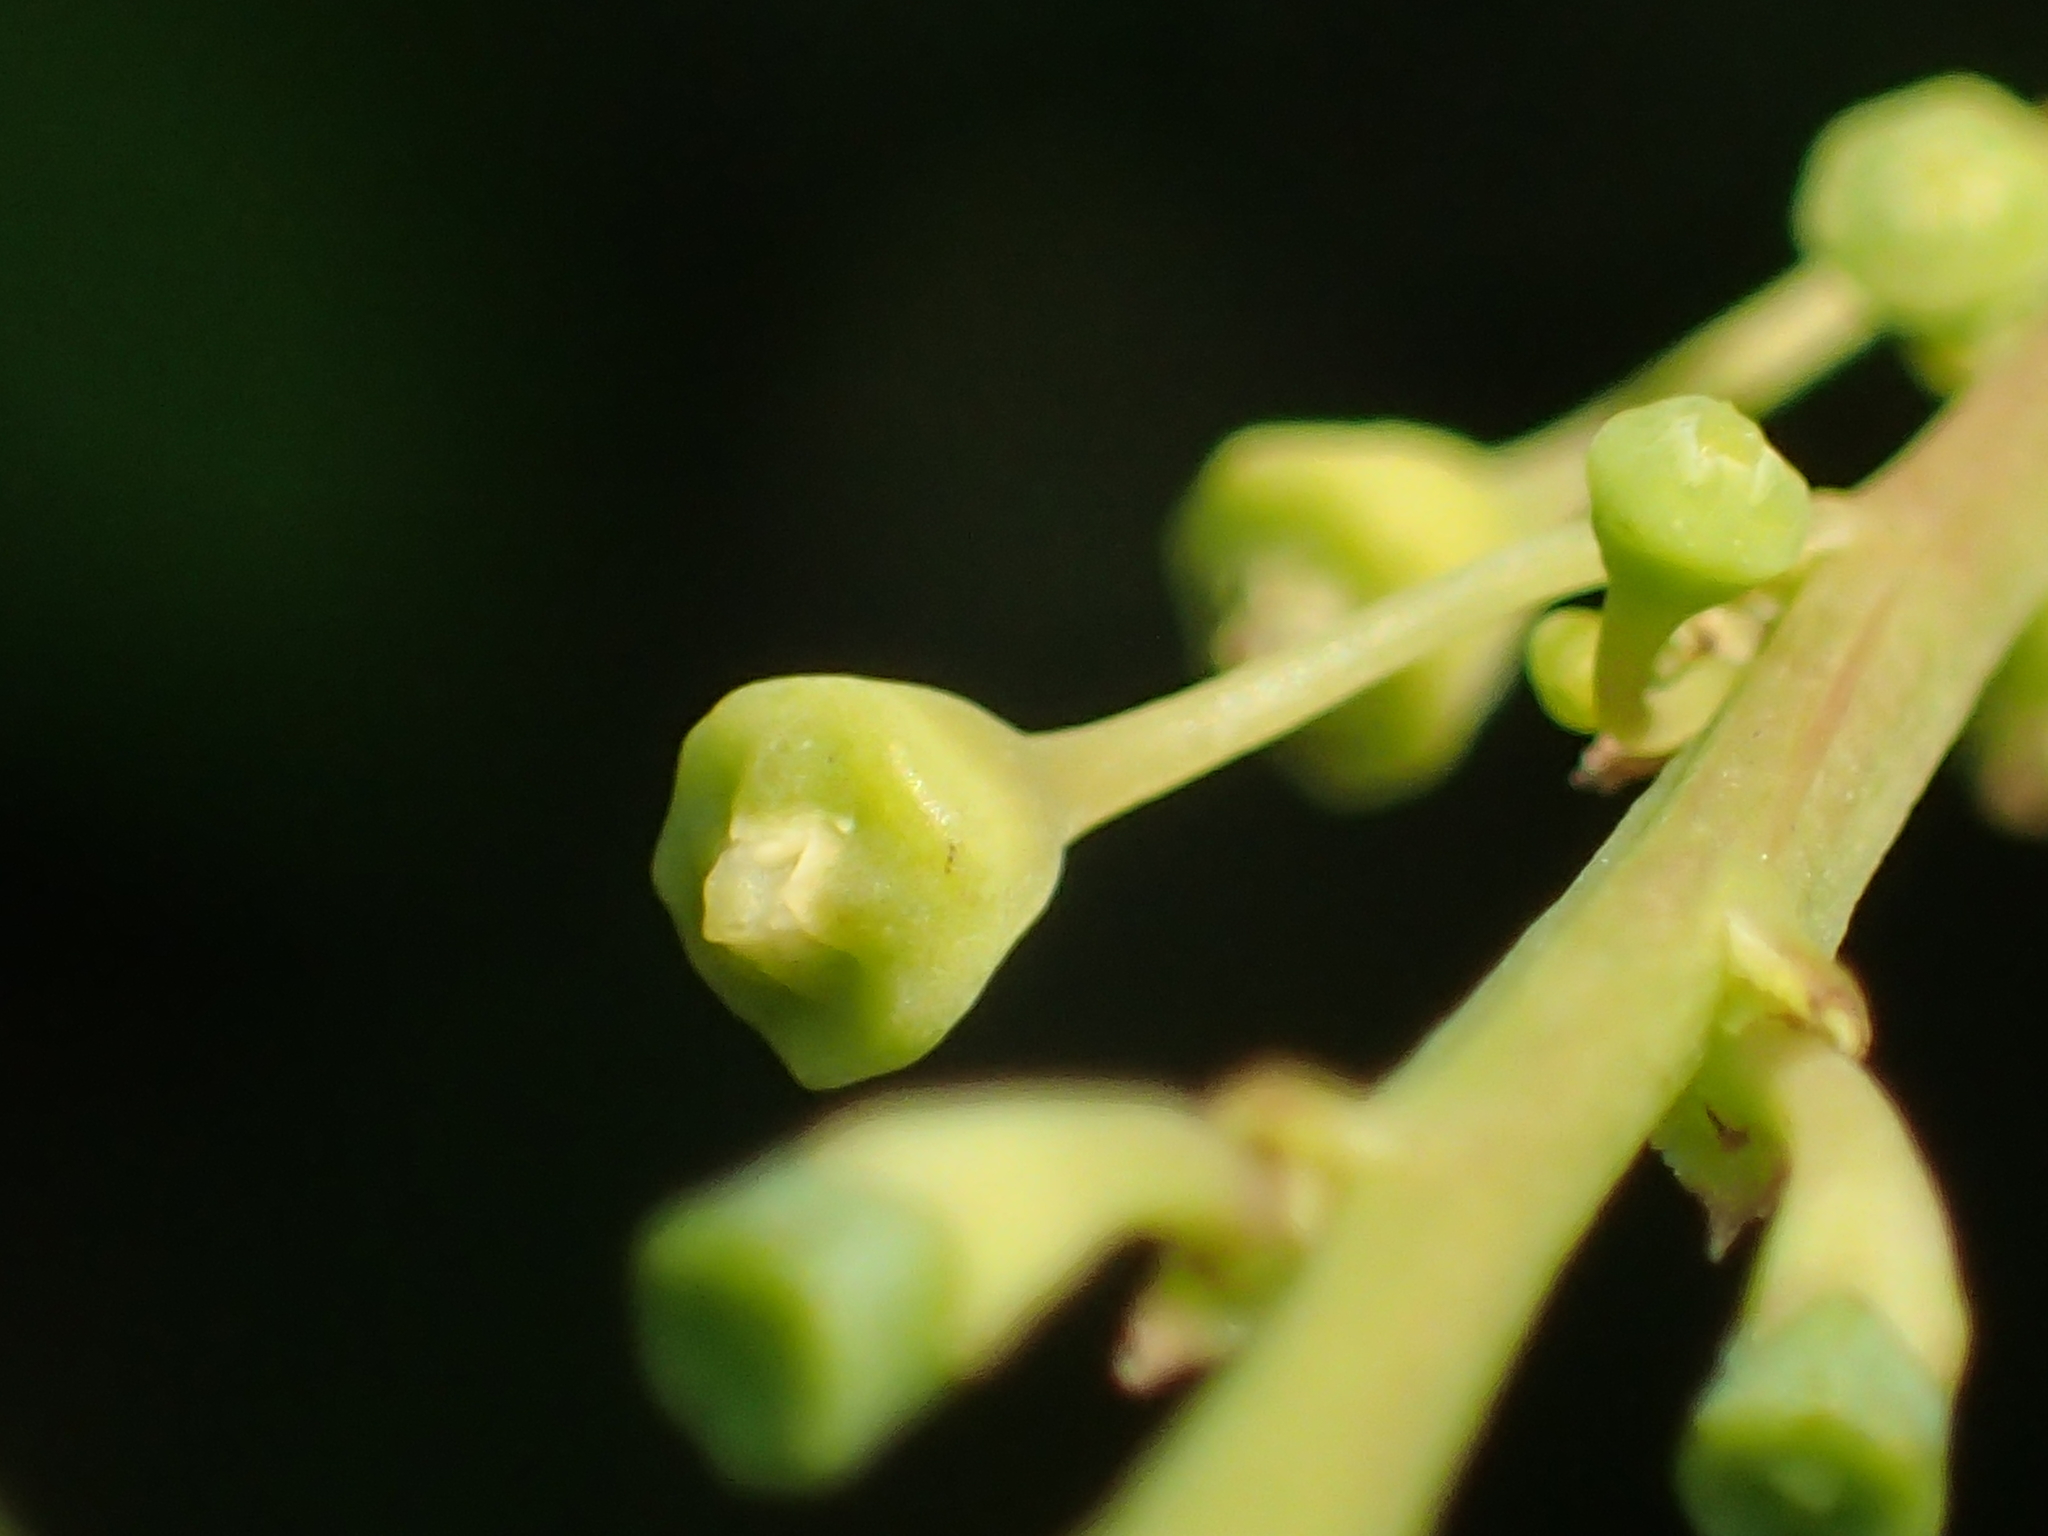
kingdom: Plantae
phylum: Tracheophyta
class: Magnoliopsida
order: Malpighiales
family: Phyllanthaceae
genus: Breynia
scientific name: Breynia vitis-idaea
